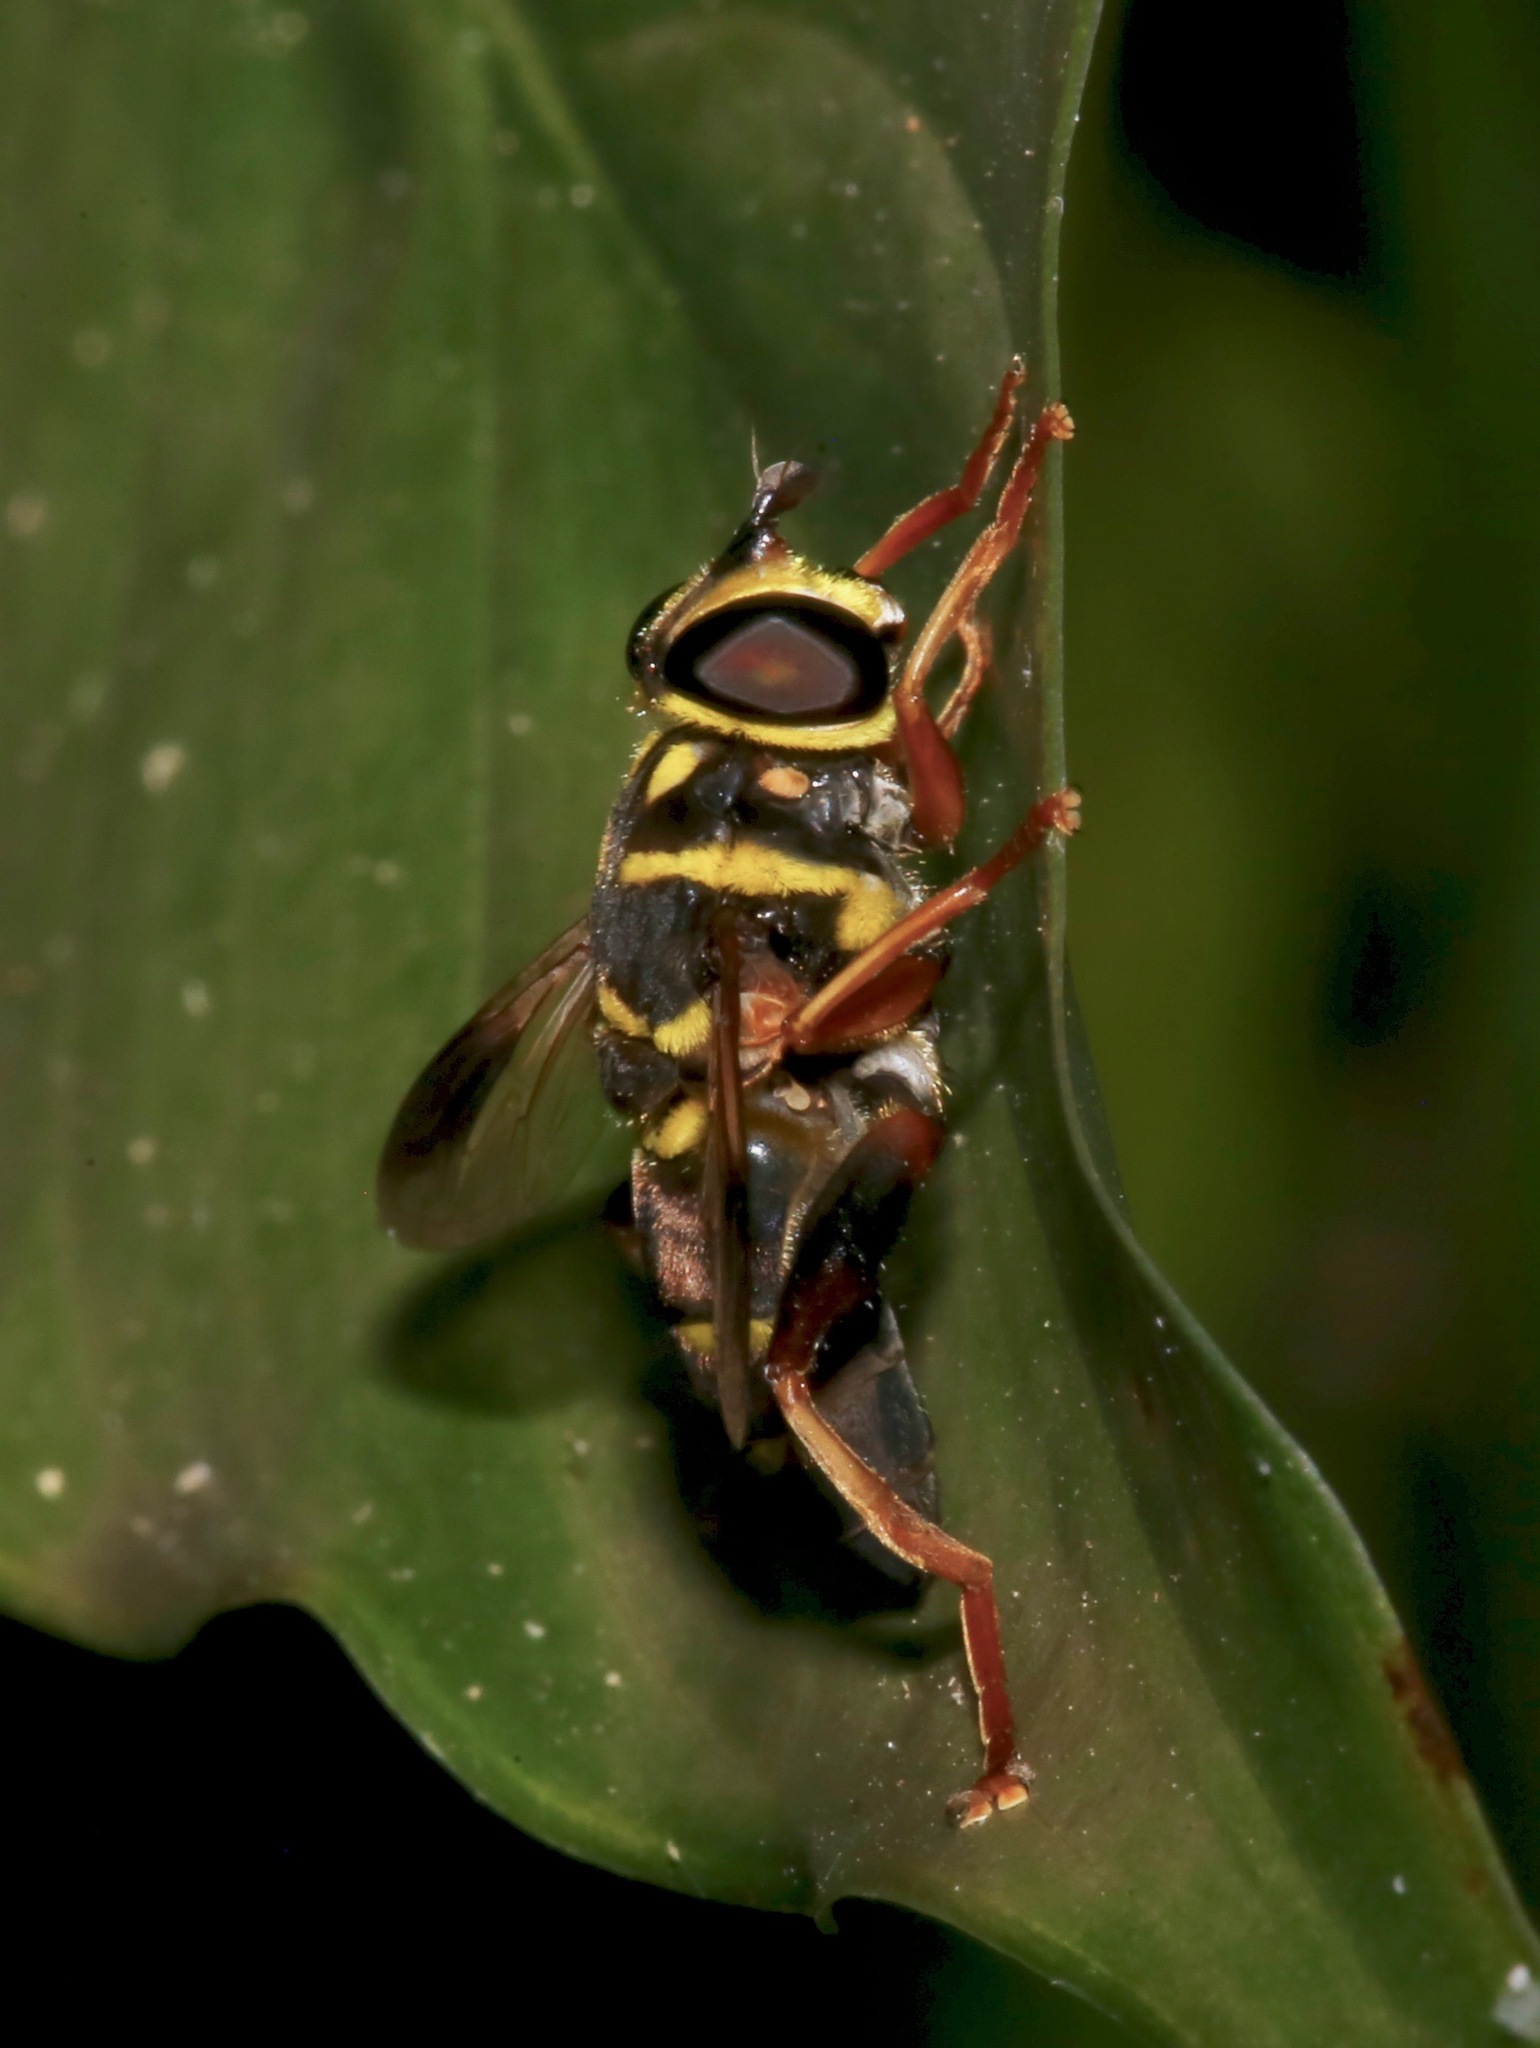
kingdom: Animalia
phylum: Arthropoda
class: Insecta
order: Diptera
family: Syrphidae
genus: Meromacrus
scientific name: Meromacrus acutus
